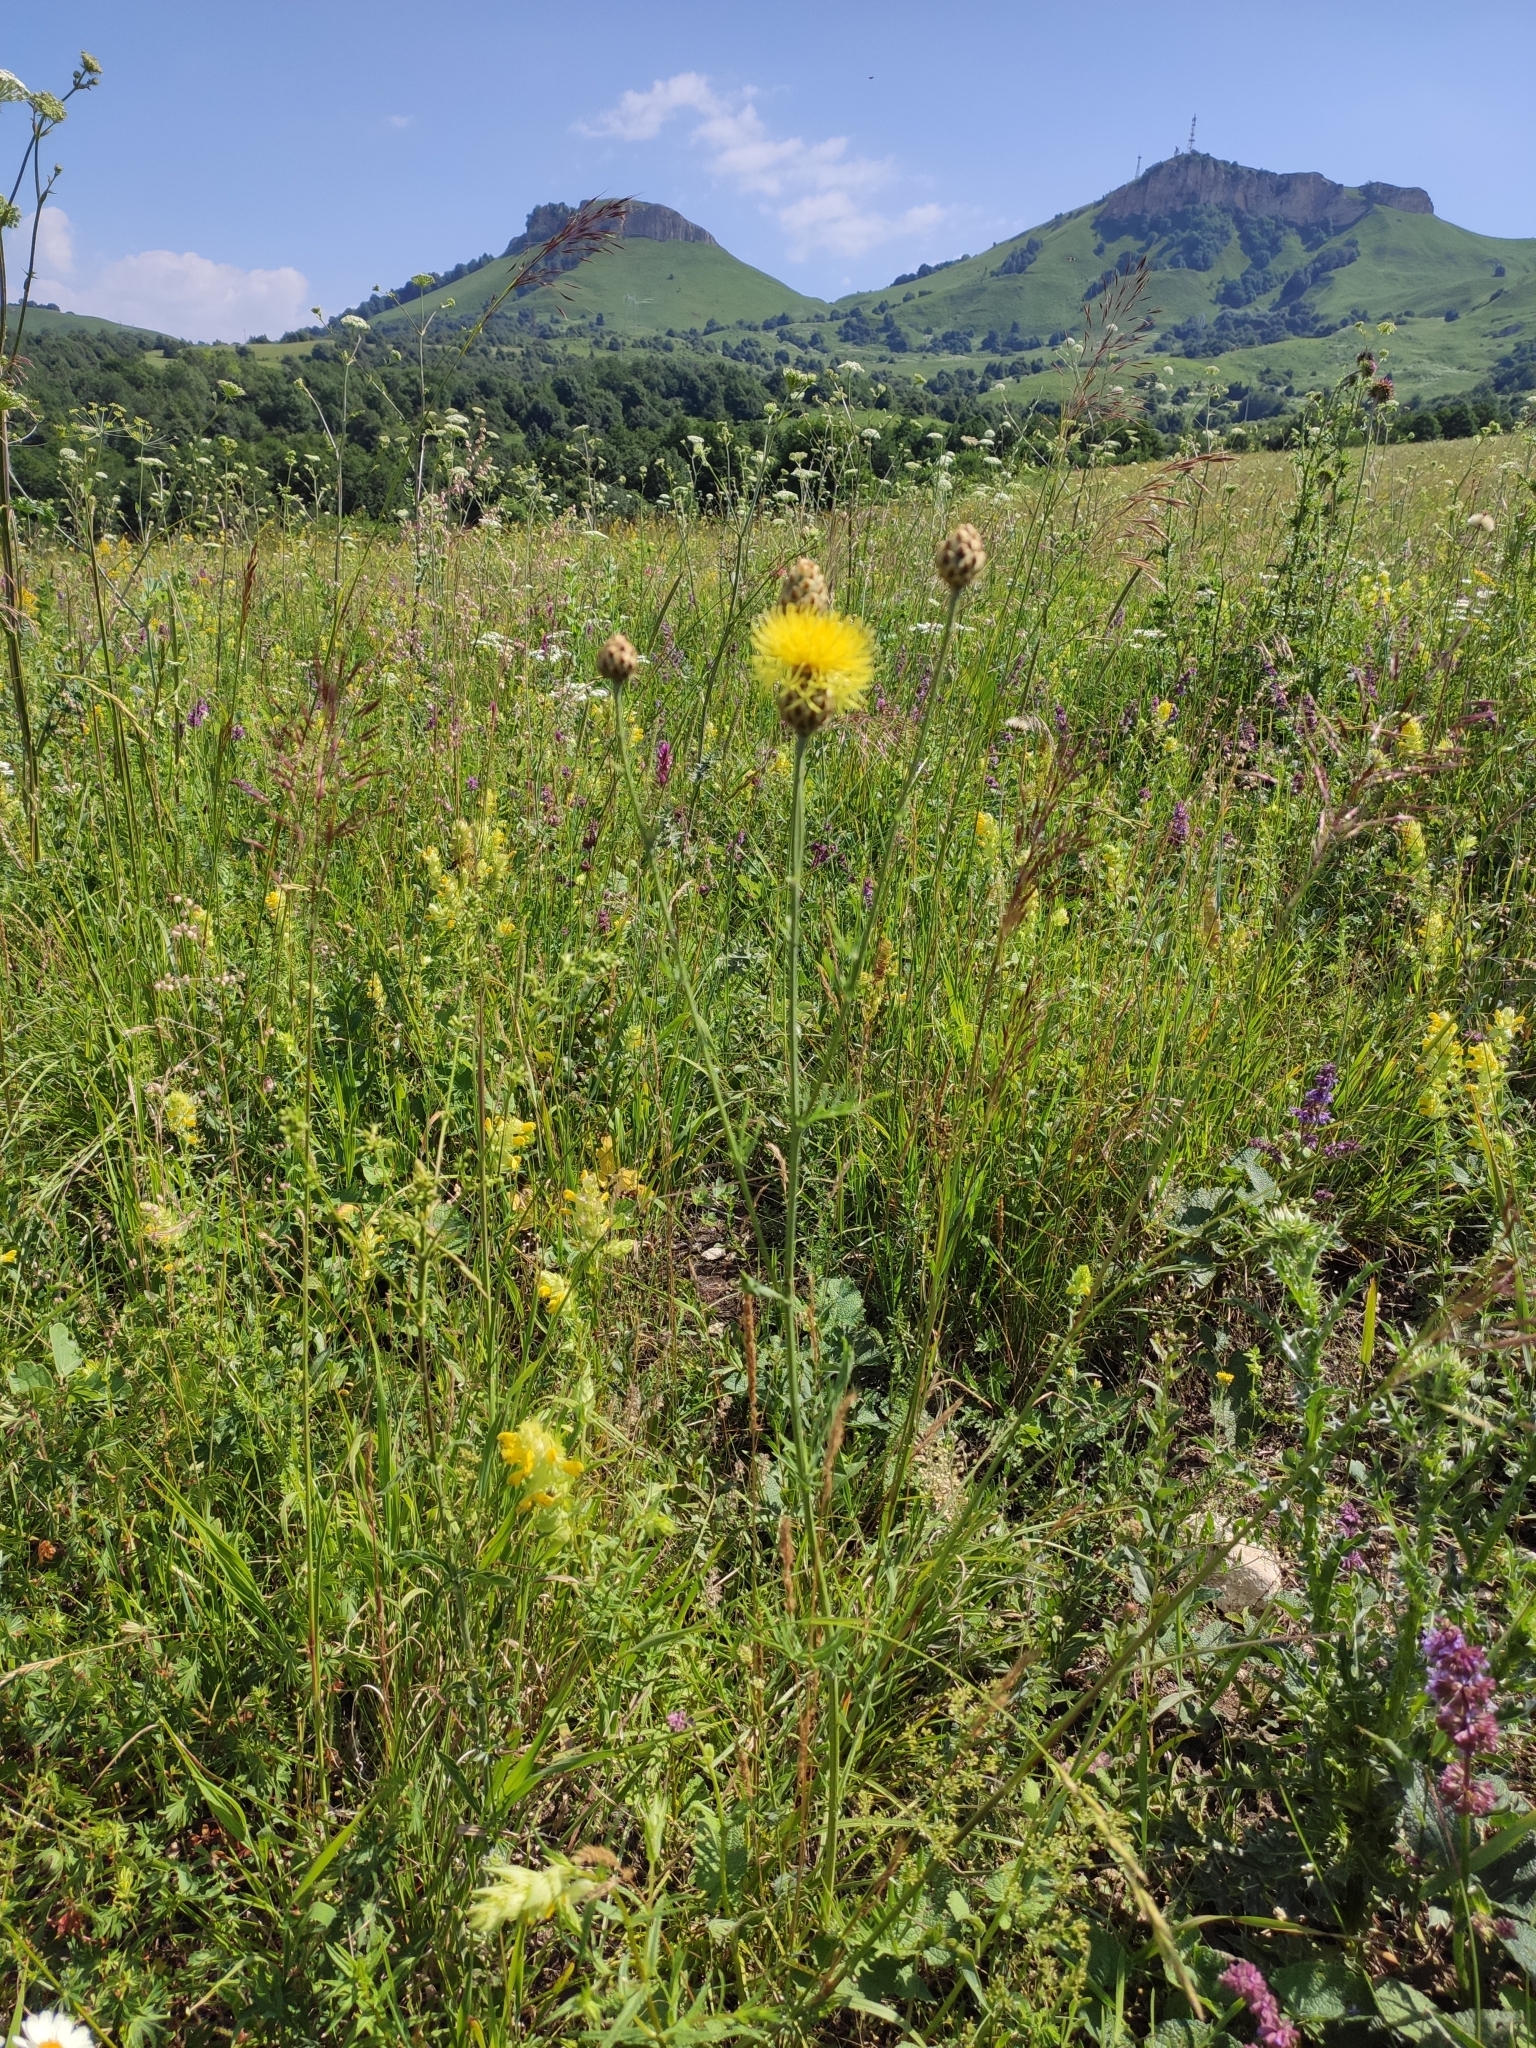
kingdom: Plantae
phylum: Tracheophyta
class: Magnoliopsida
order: Asterales
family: Asteraceae
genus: Centaurea
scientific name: Centaurea orientalis
